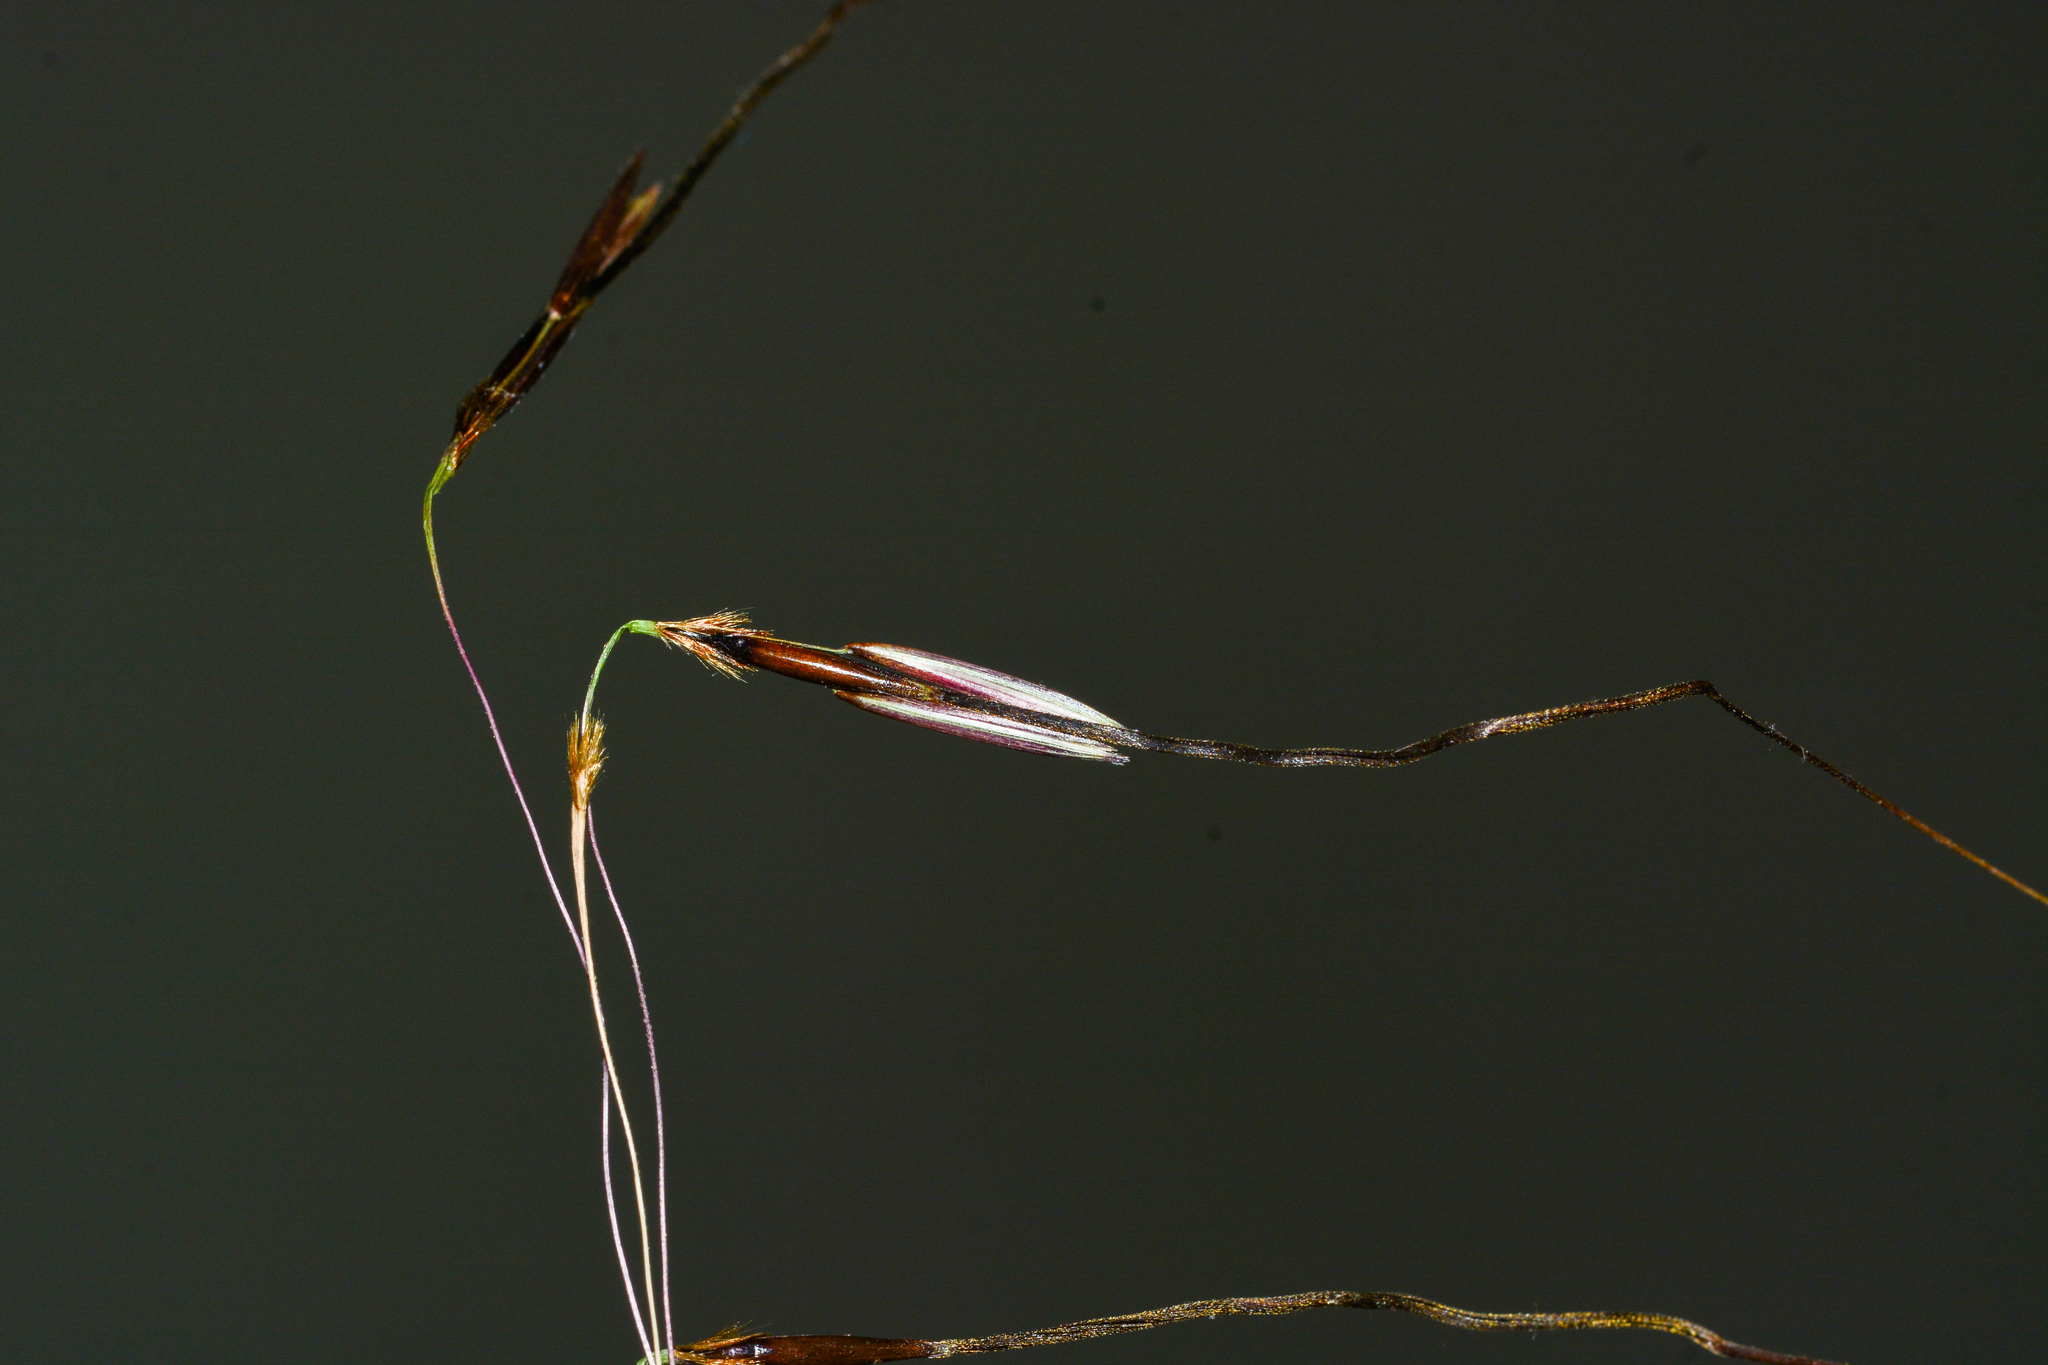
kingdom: Plantae
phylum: Tracheophyta
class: Liliopsida
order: Poales
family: Poaceae
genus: Chrysopogon
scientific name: Chrysopogon castaneus
